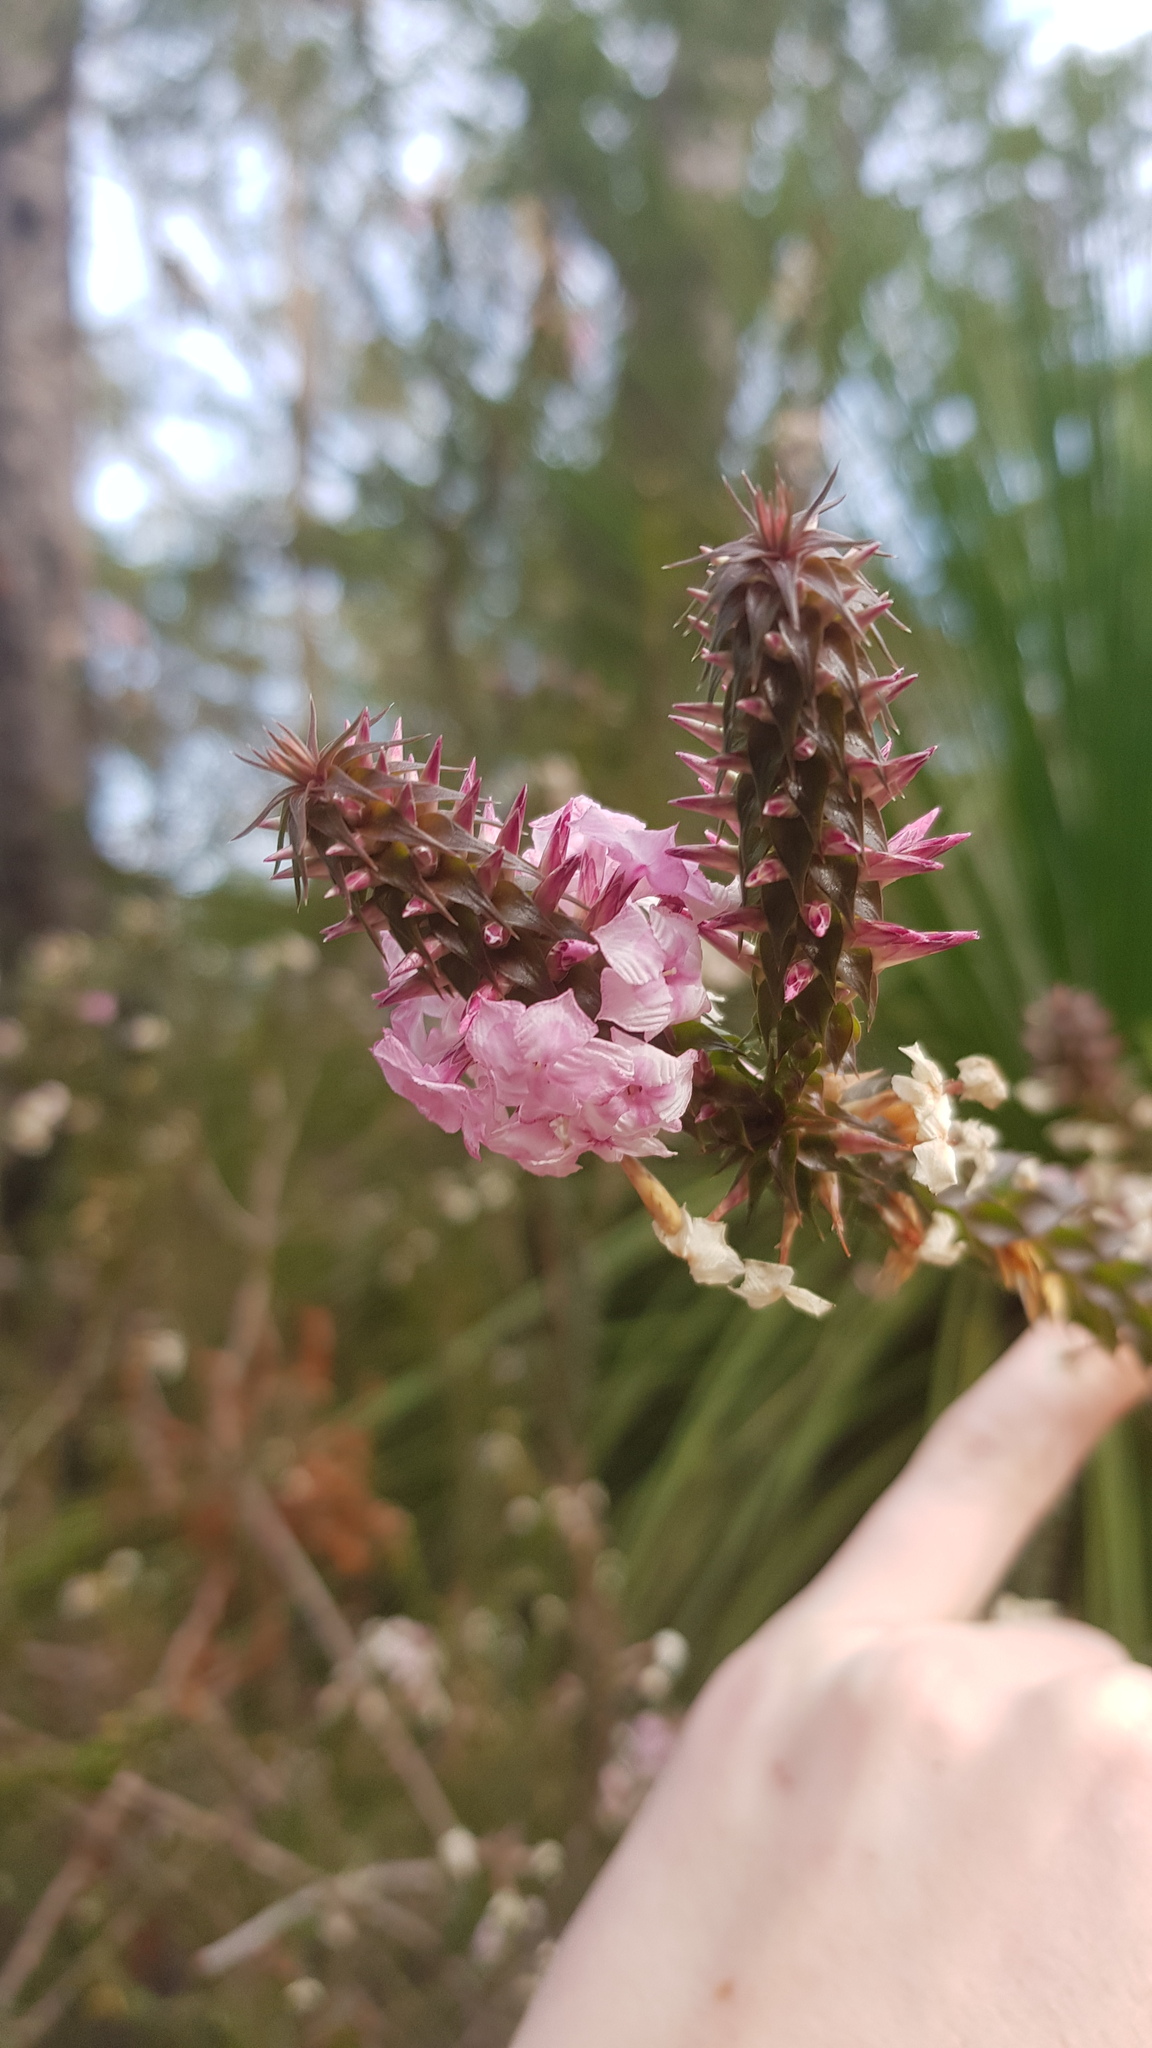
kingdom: Plantae
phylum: Tracheophyta
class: Magnoliopsida
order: Ericales
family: Ericaceae
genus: Woollsia
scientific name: Woollsia pungens
